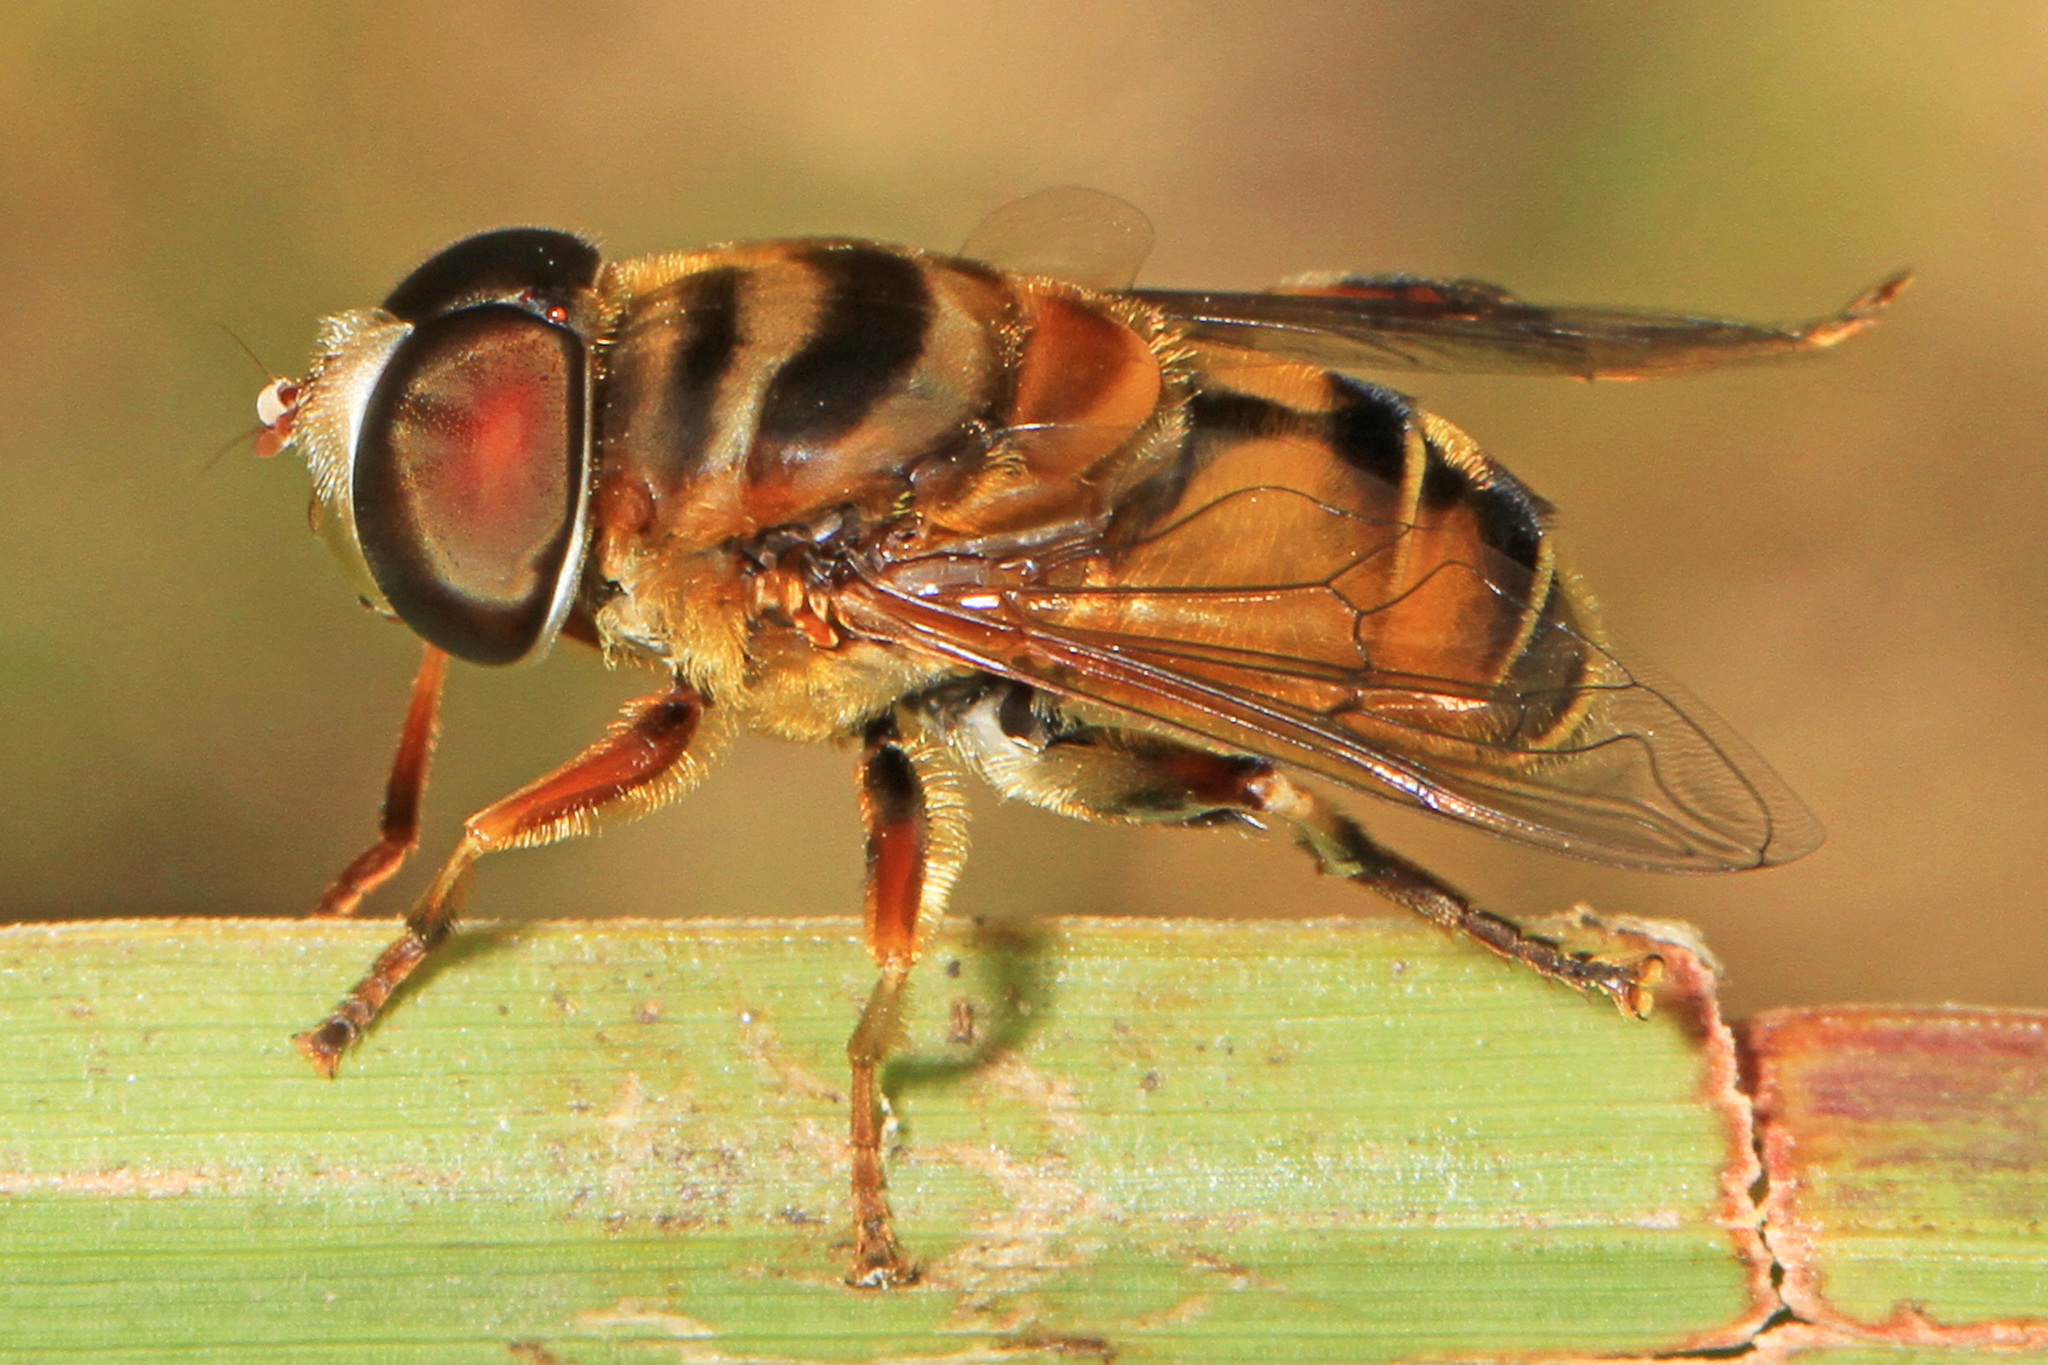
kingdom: Animalia
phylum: Arthropoda
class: Insecta
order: Diptera
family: Syrphidae
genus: Palpada
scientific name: Palpada vinetorum
